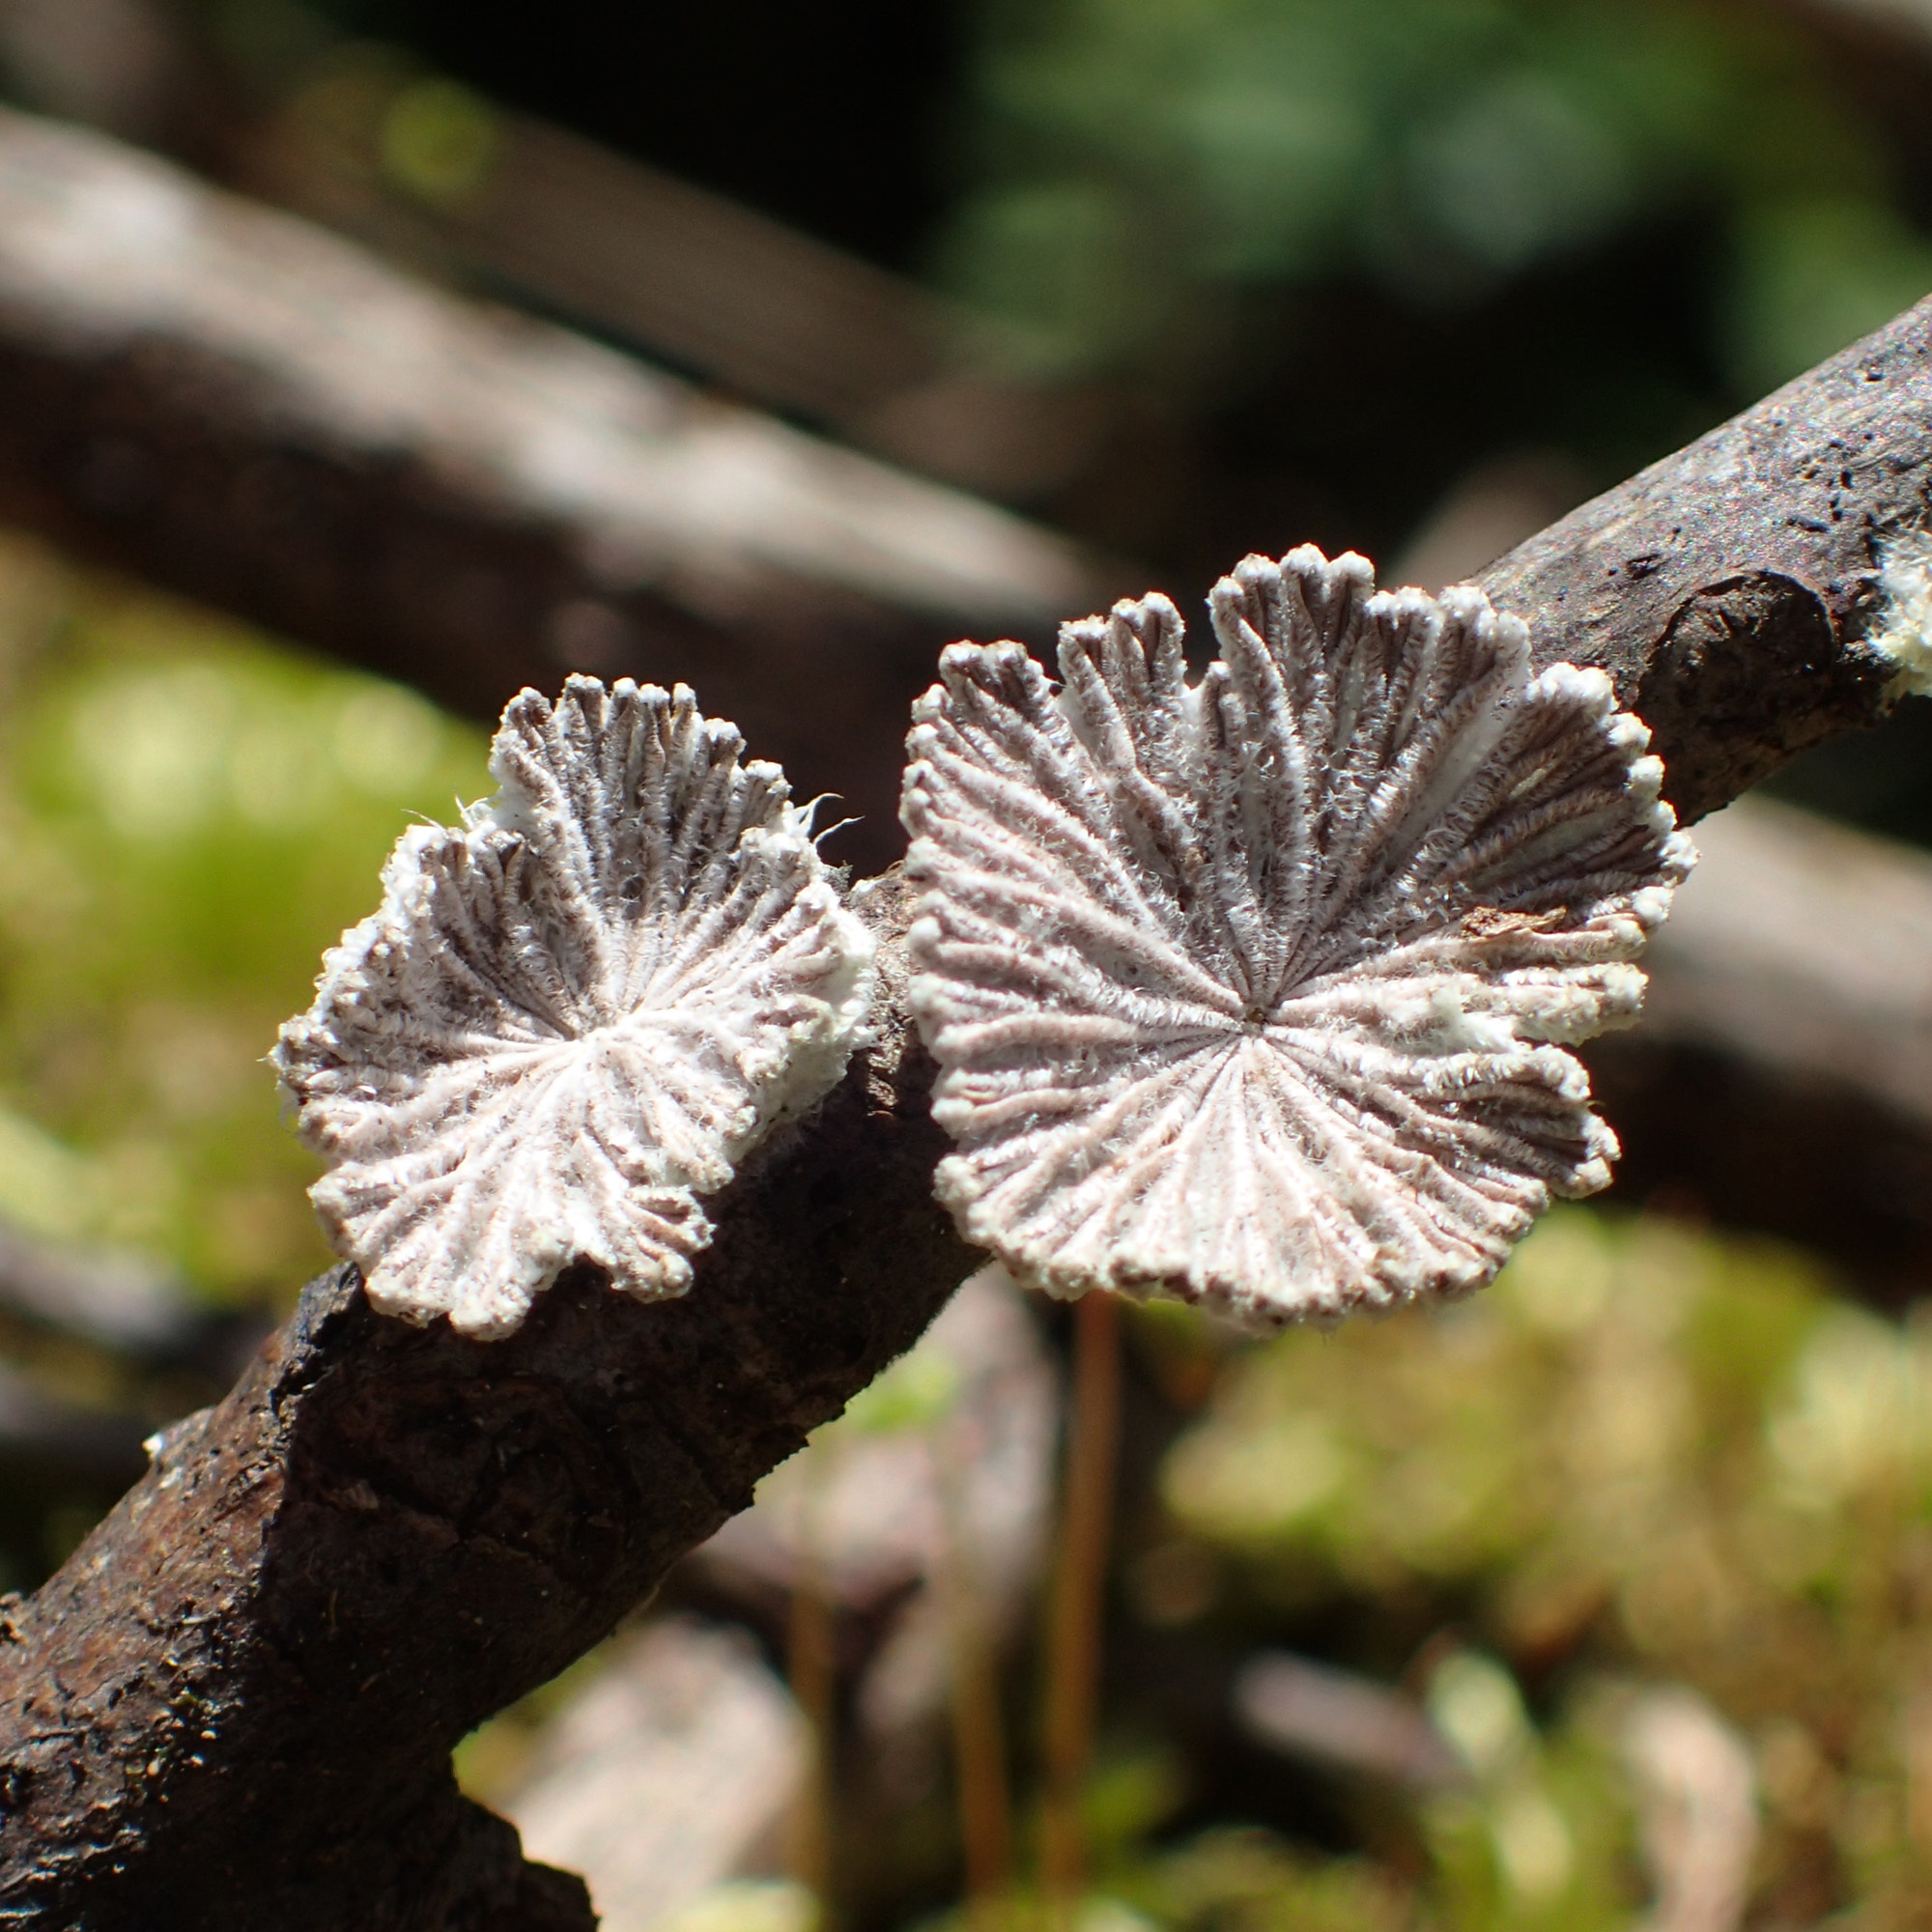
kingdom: Fungi
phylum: Basidiomycota
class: Agaricomycetes
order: Agaricales
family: Schizophyllaceae
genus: Schizophyllum
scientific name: Schizophyllum commune
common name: Common porecrust
